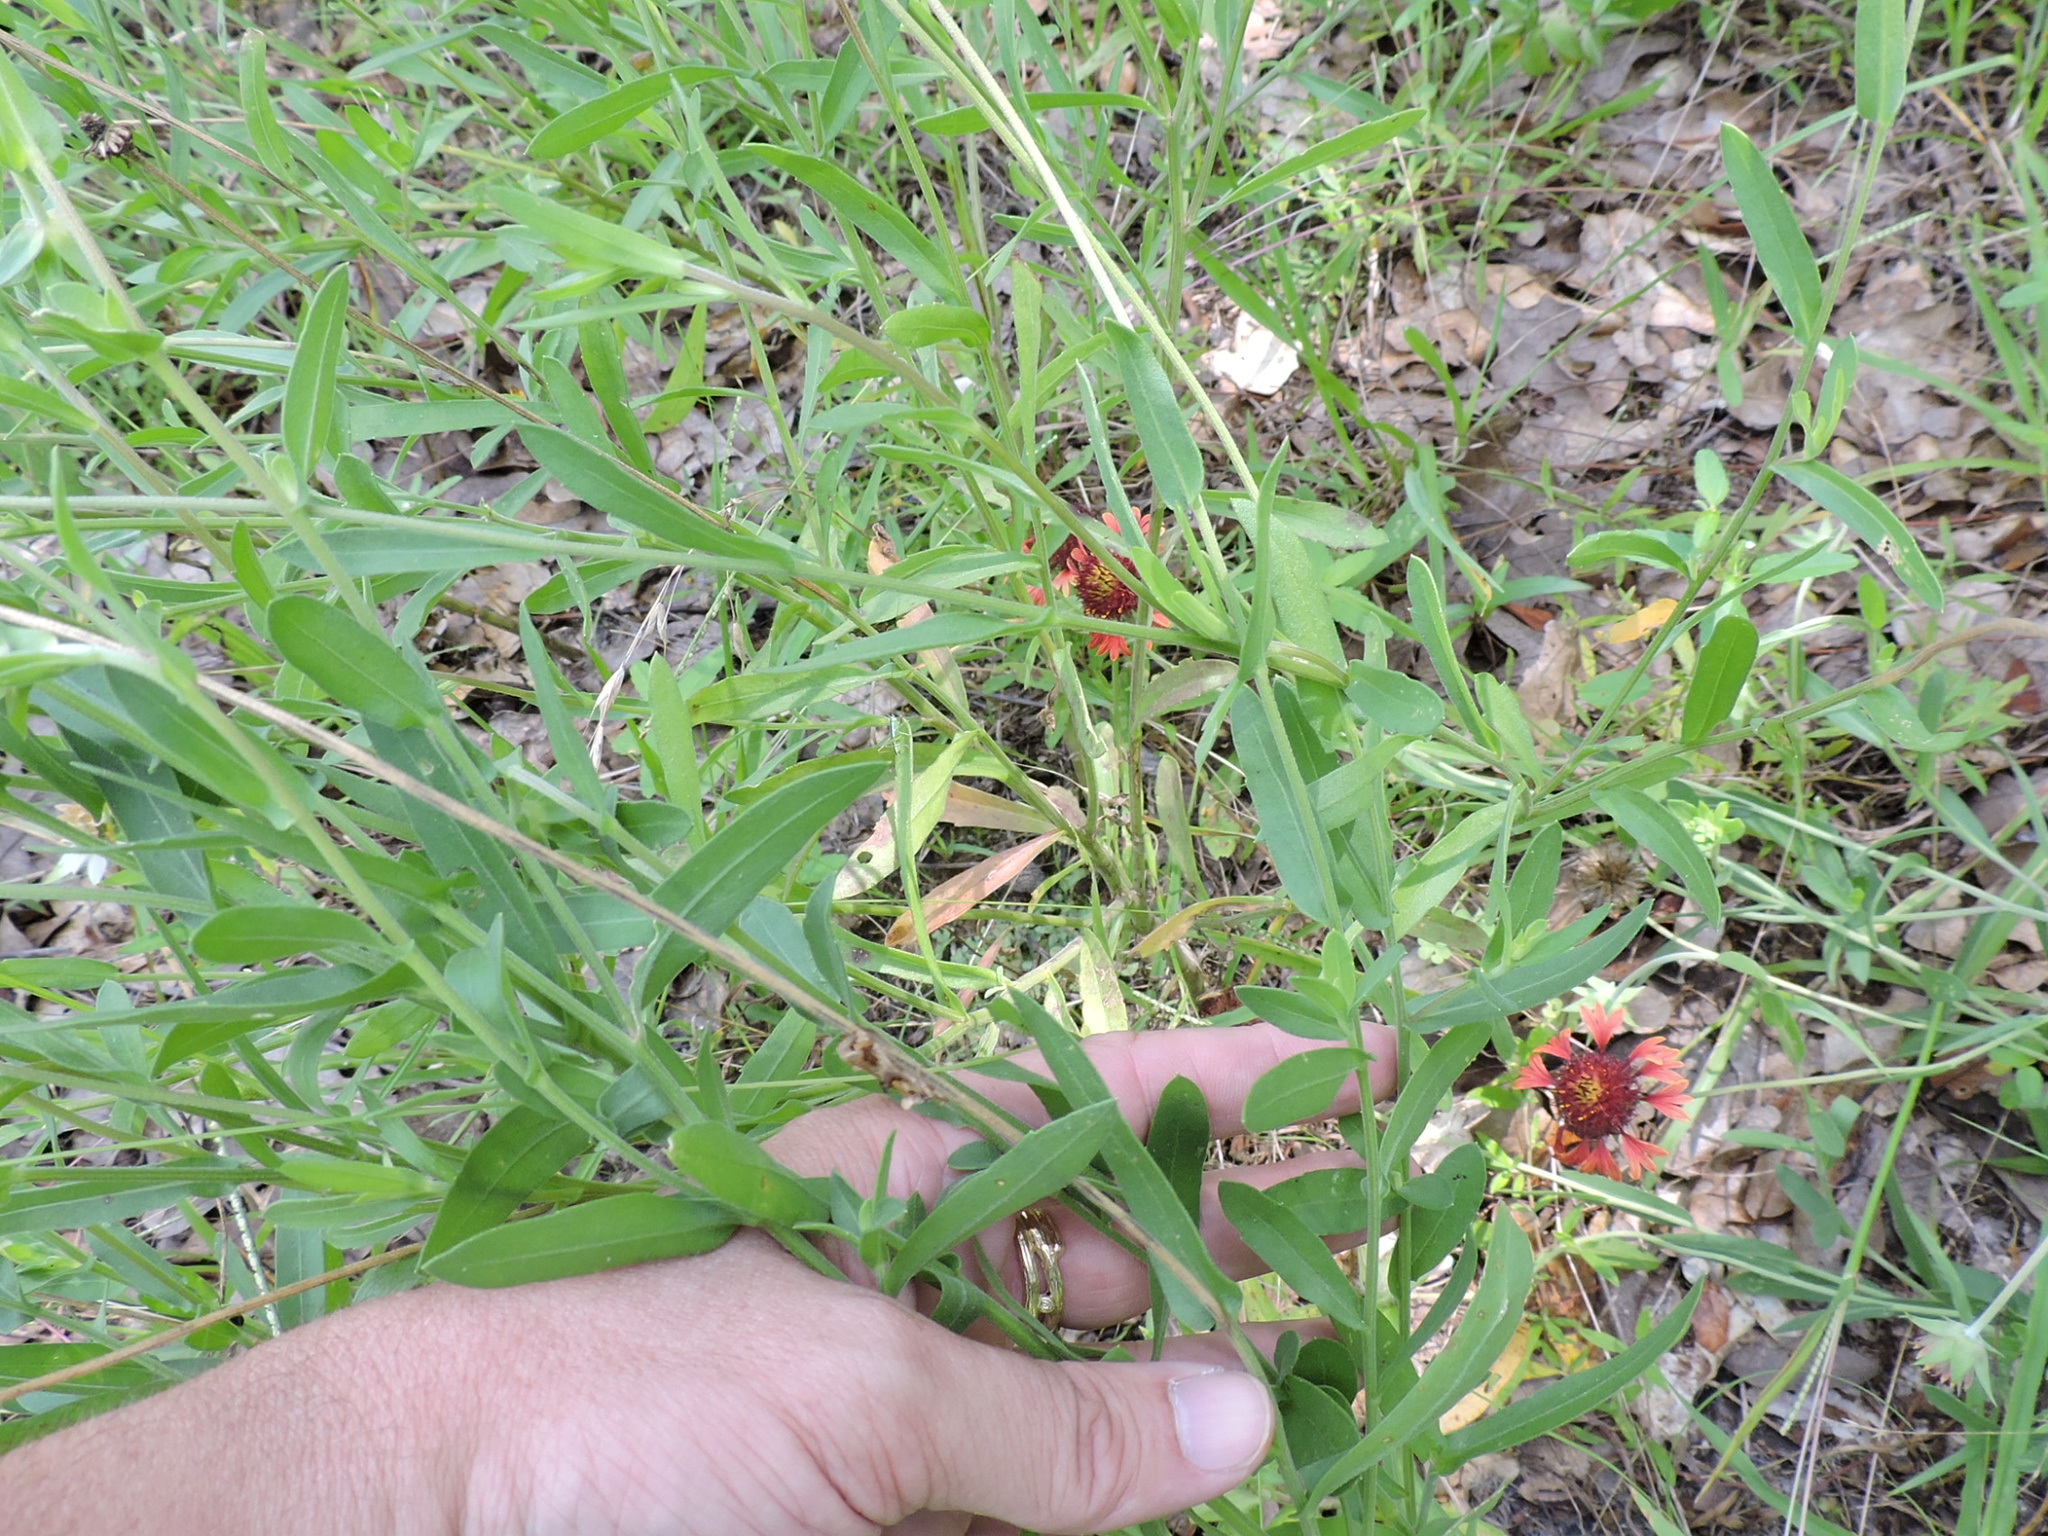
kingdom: Plantae
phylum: Tracheophyta
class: Magnoliopsida
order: Asterales
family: Asteraceae
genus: Gaillardia
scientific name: Gaillardia aestivalis
